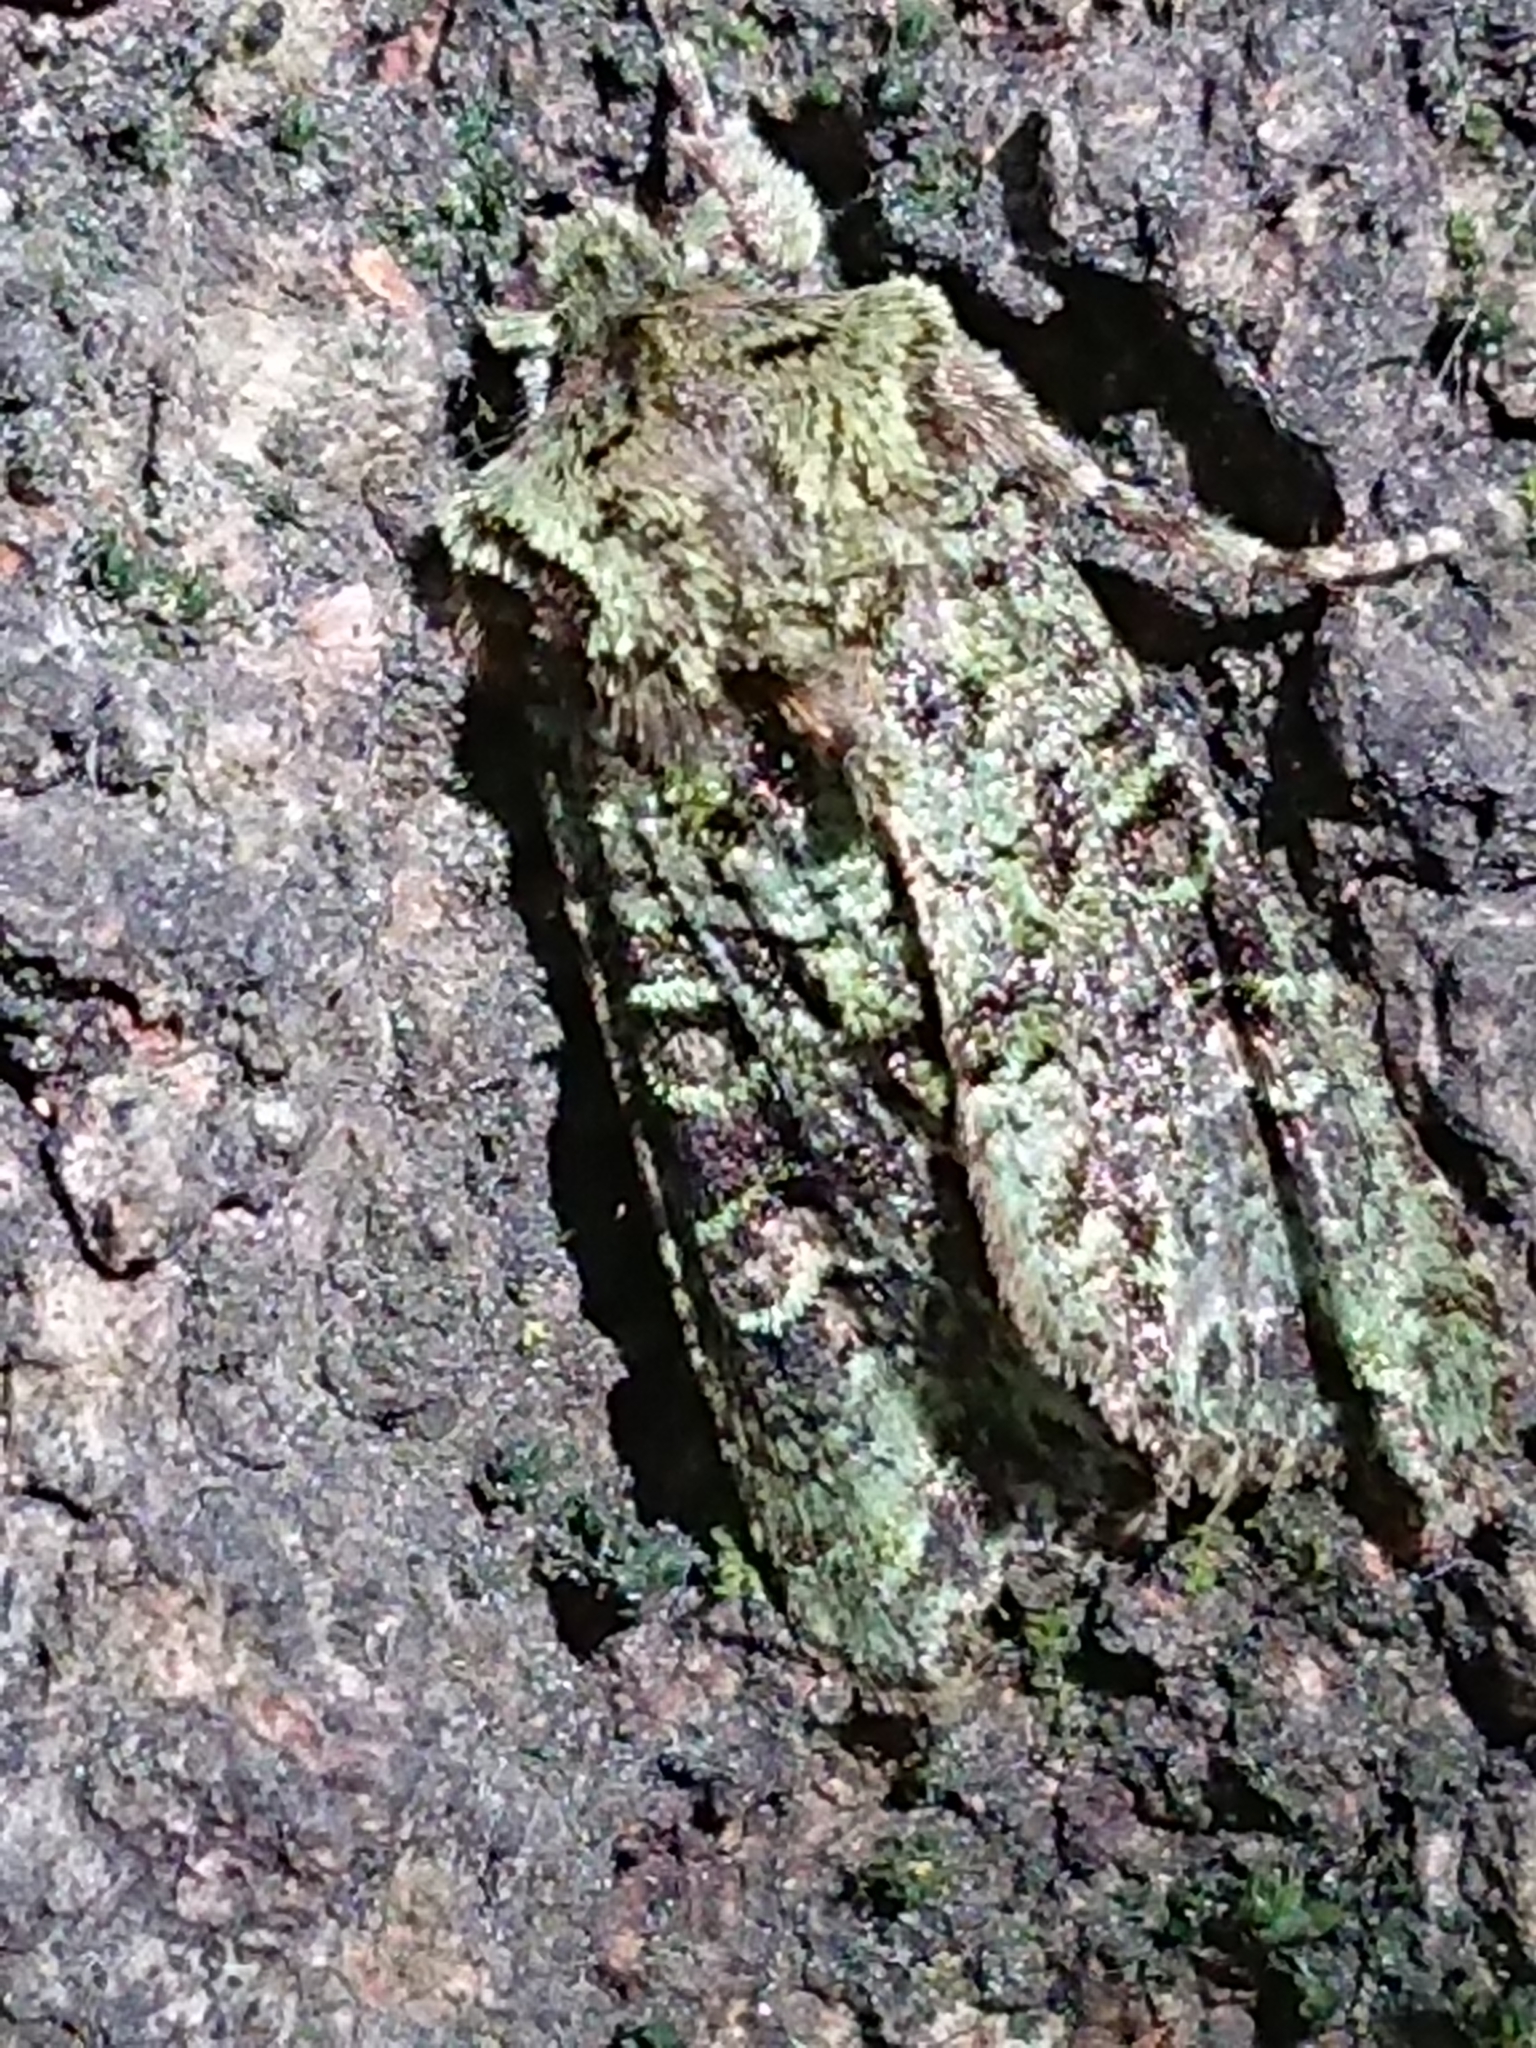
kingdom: Animalia
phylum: Arthropoda
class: Insecta
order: Lepidoptera
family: Noctuidae
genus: Ichneutica
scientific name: Ichneutica
